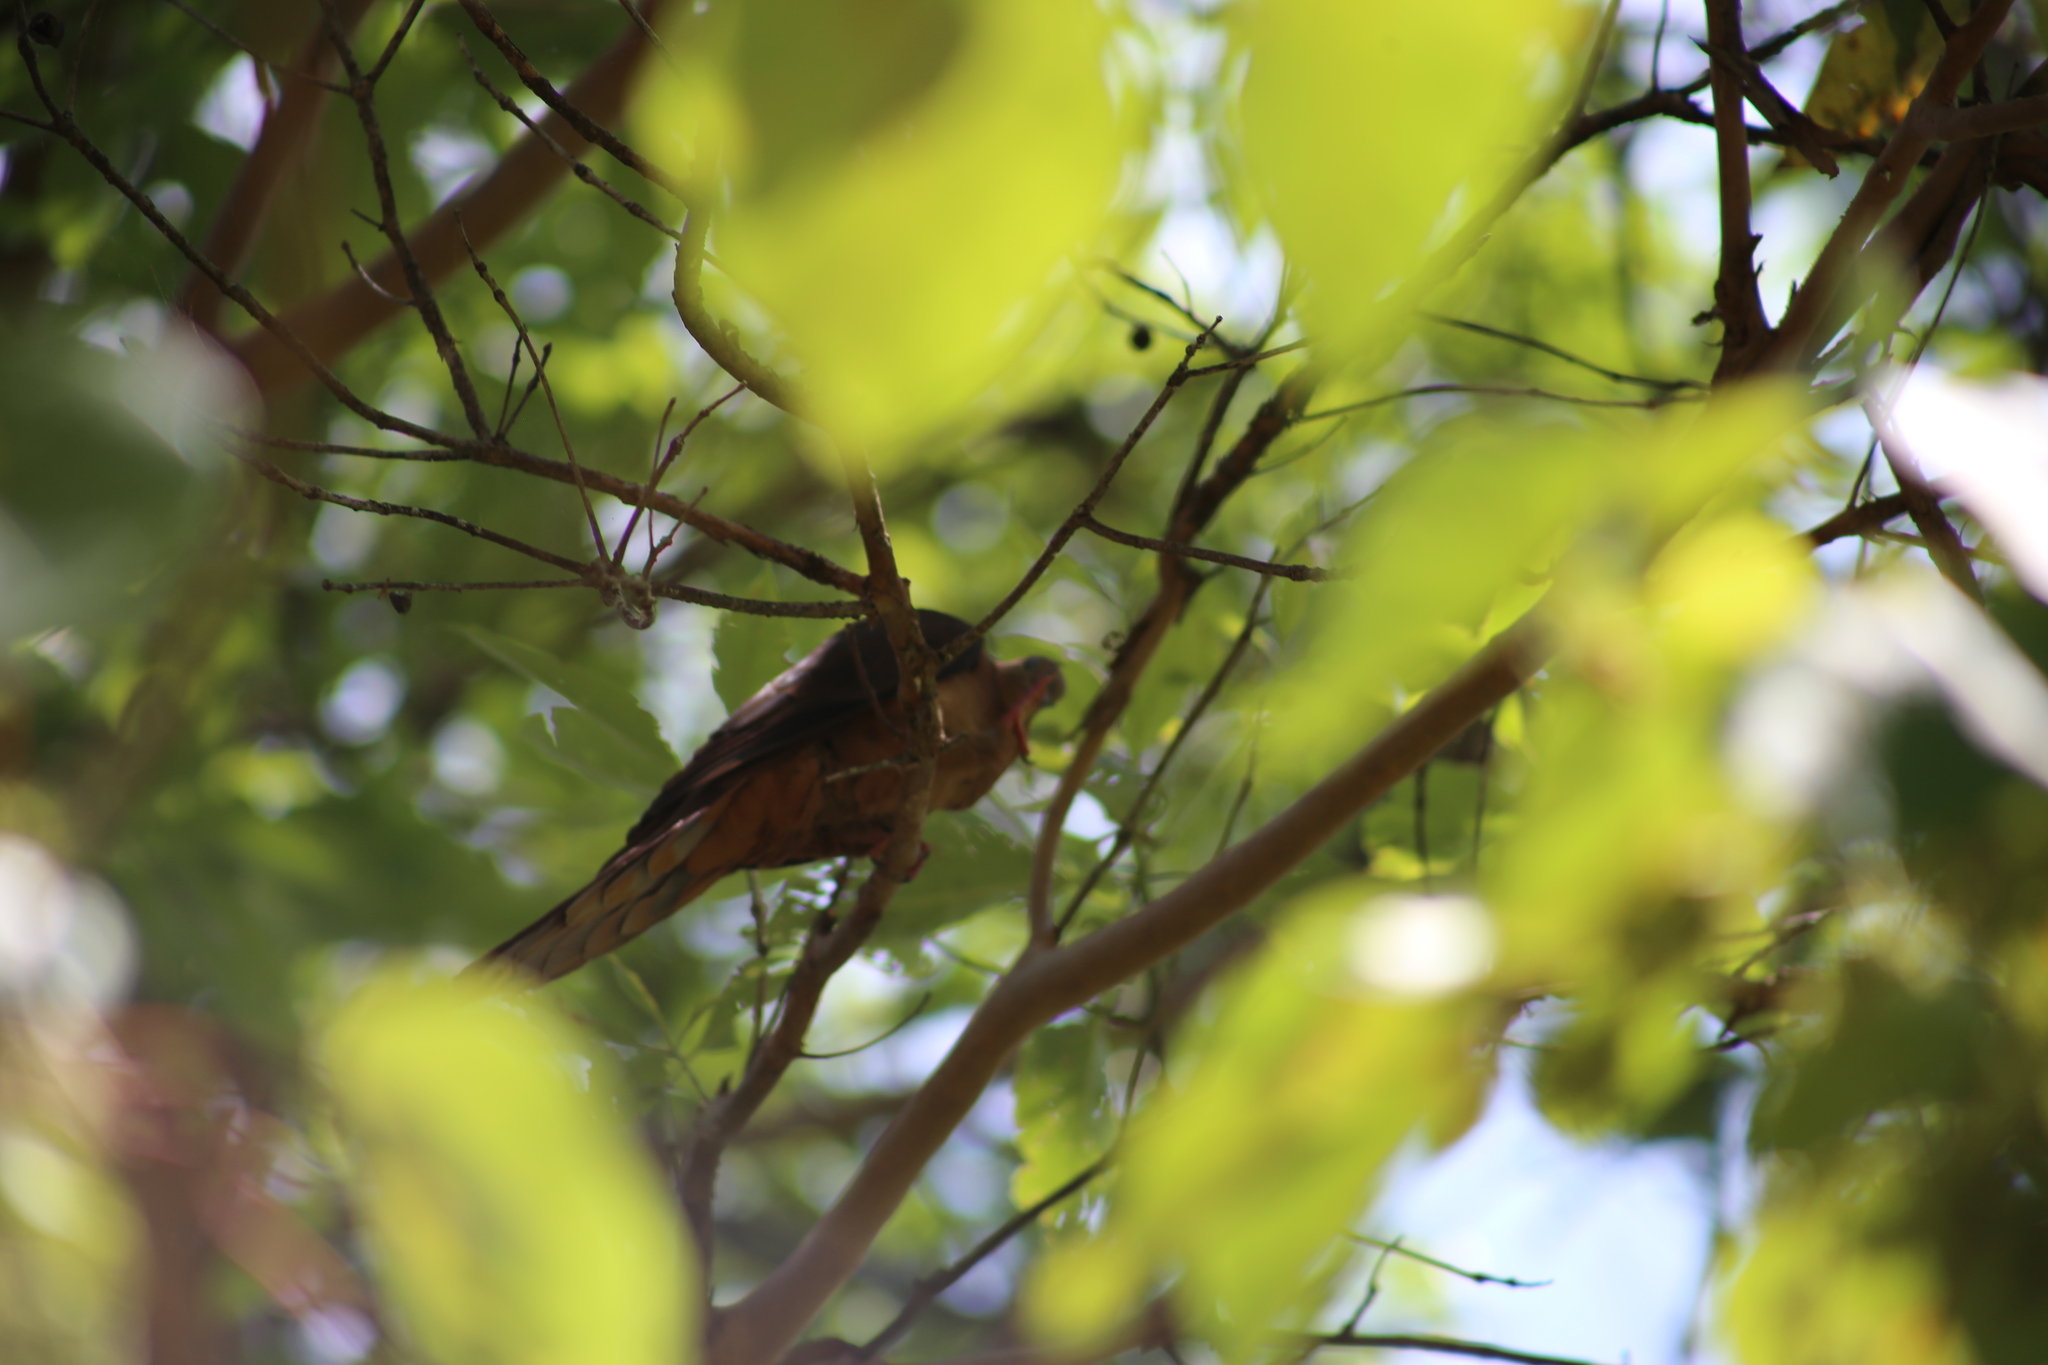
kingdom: Animalia
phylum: Chordata
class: Aves
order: Columbiformes
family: Columbidae
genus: Macropygia
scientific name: Macropygia phasianella
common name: Brown cuckoo-dove
